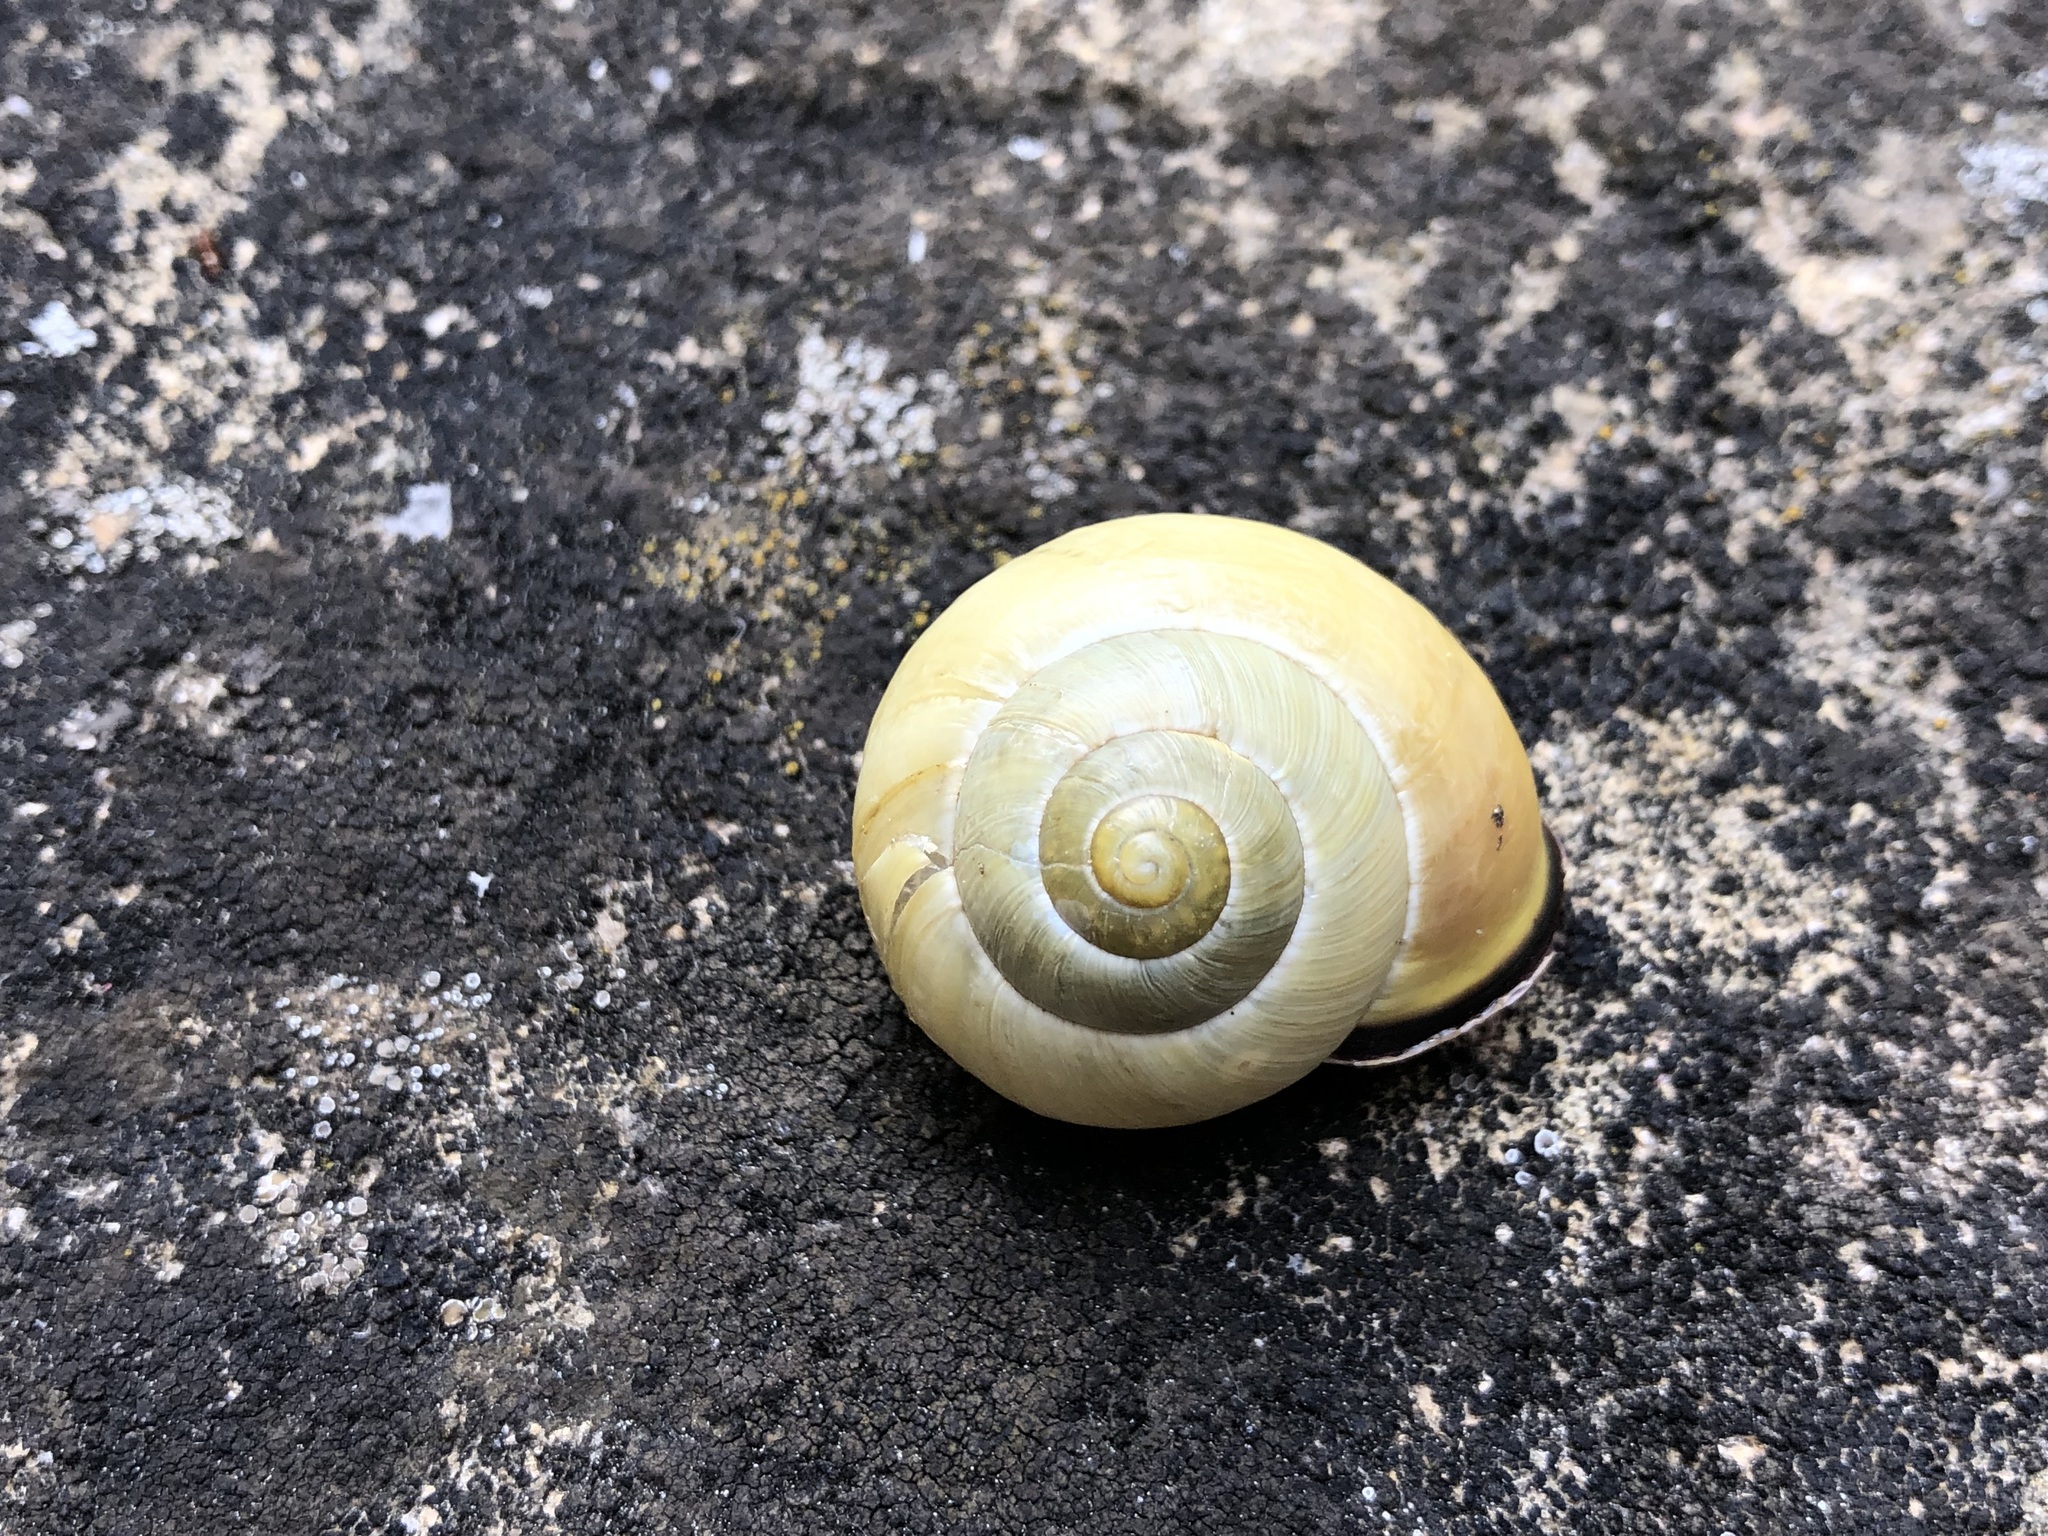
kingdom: Animalia
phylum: Mollusca
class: Gastropoda
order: Stylommatophora
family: Helicidae
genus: Cepaea
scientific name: Cepaea nemoralis
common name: Grovesnail
